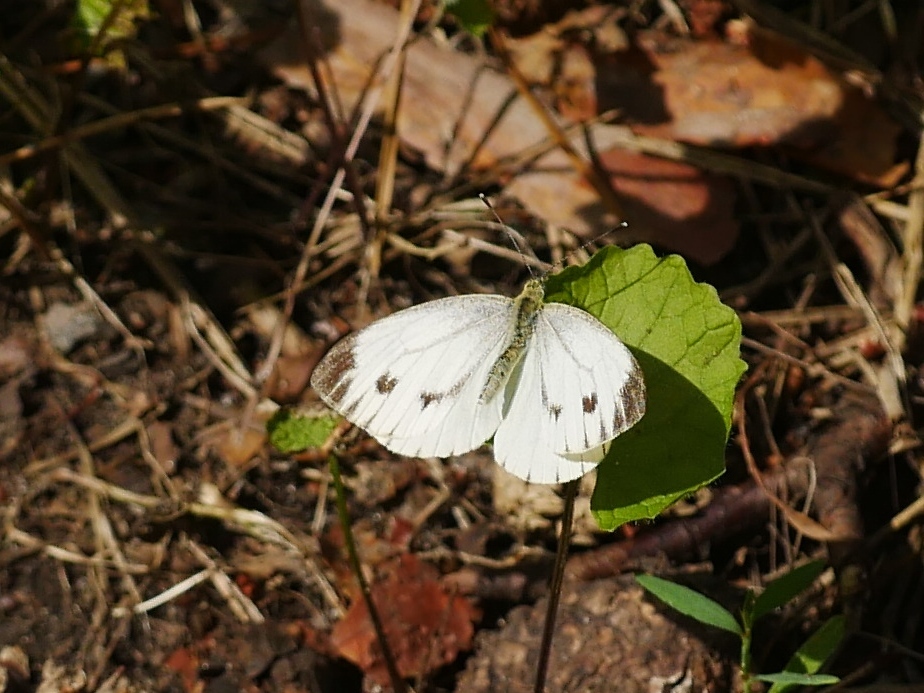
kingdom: Animalia
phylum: Arthropoda
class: Insecta
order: Lepidoptera
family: Pieridae
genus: Pieris
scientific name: Pieris napi
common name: Green-veined white
